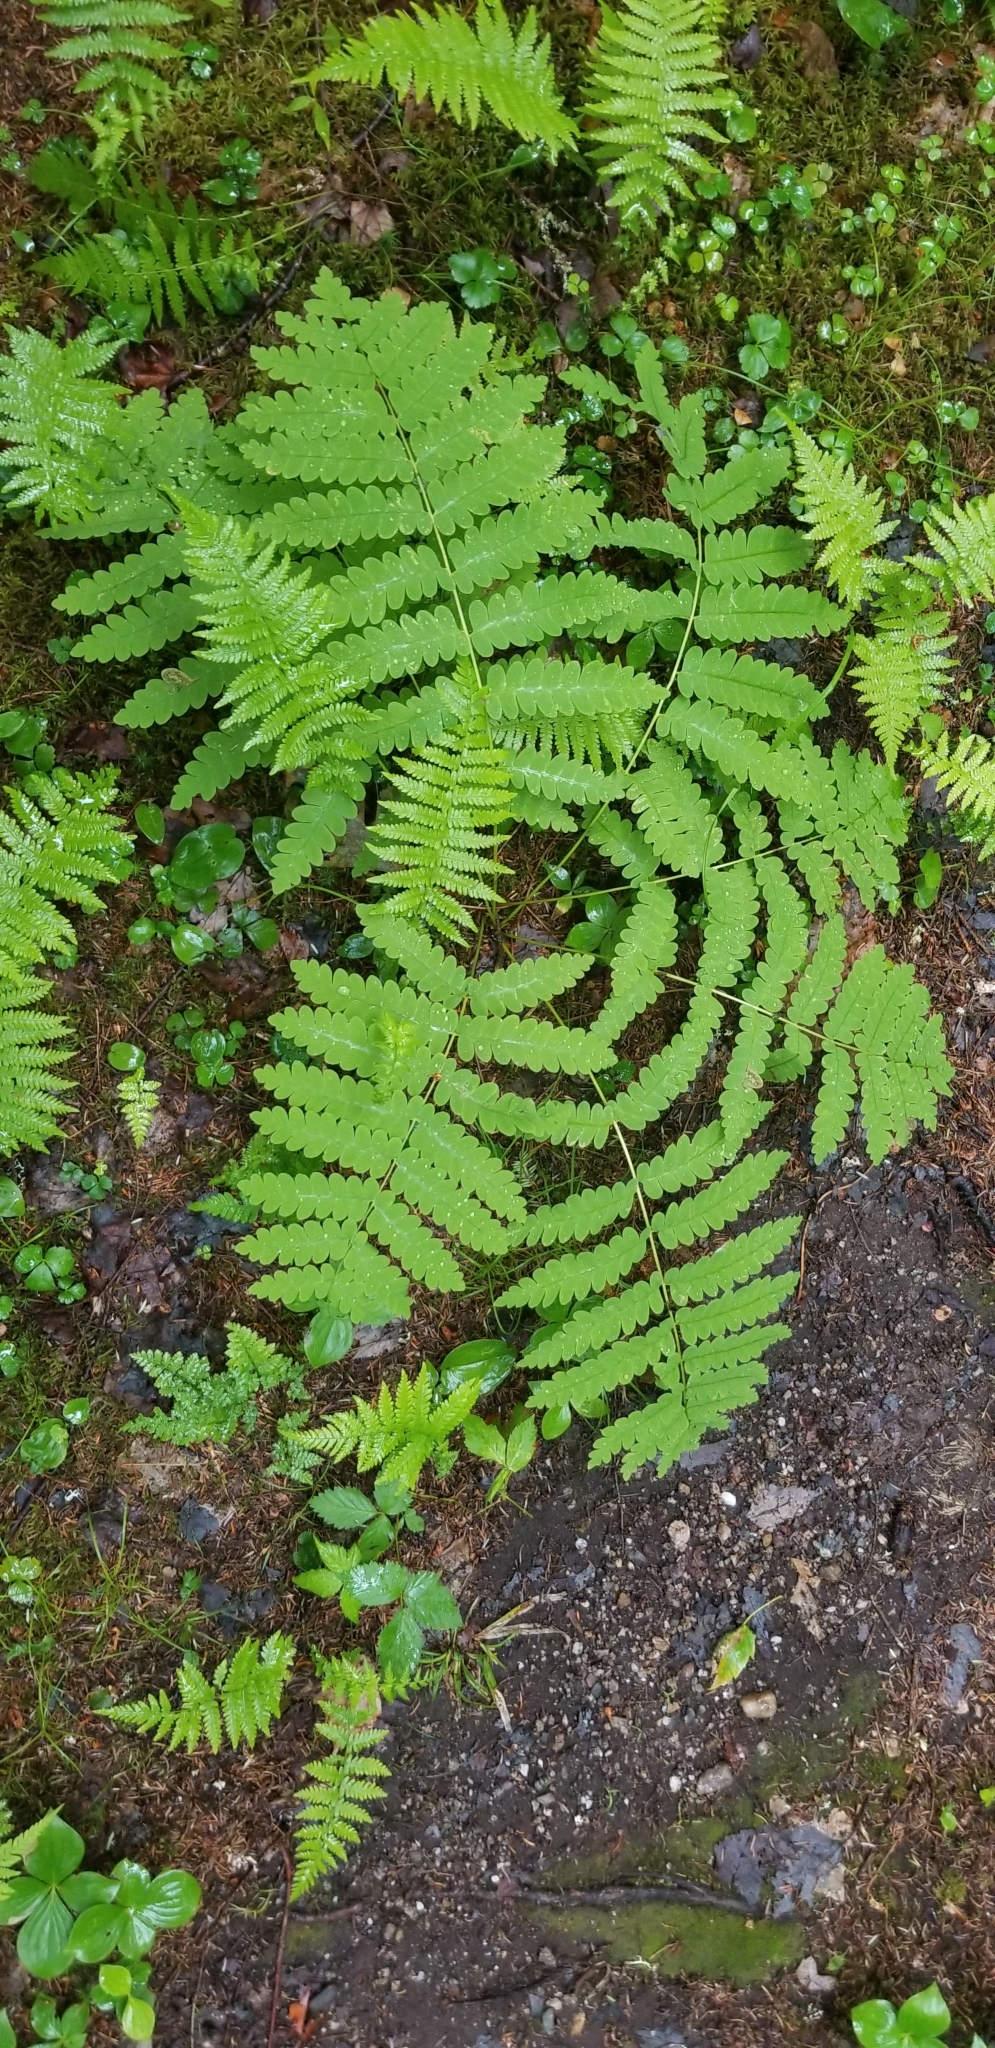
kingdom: Plantae
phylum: Tracheophyta
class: Polypodiopsida
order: Osmundales
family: Osmundaceae
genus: Claytosmunda
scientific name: Claytosmunda claytoniana
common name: Clayton's fern
